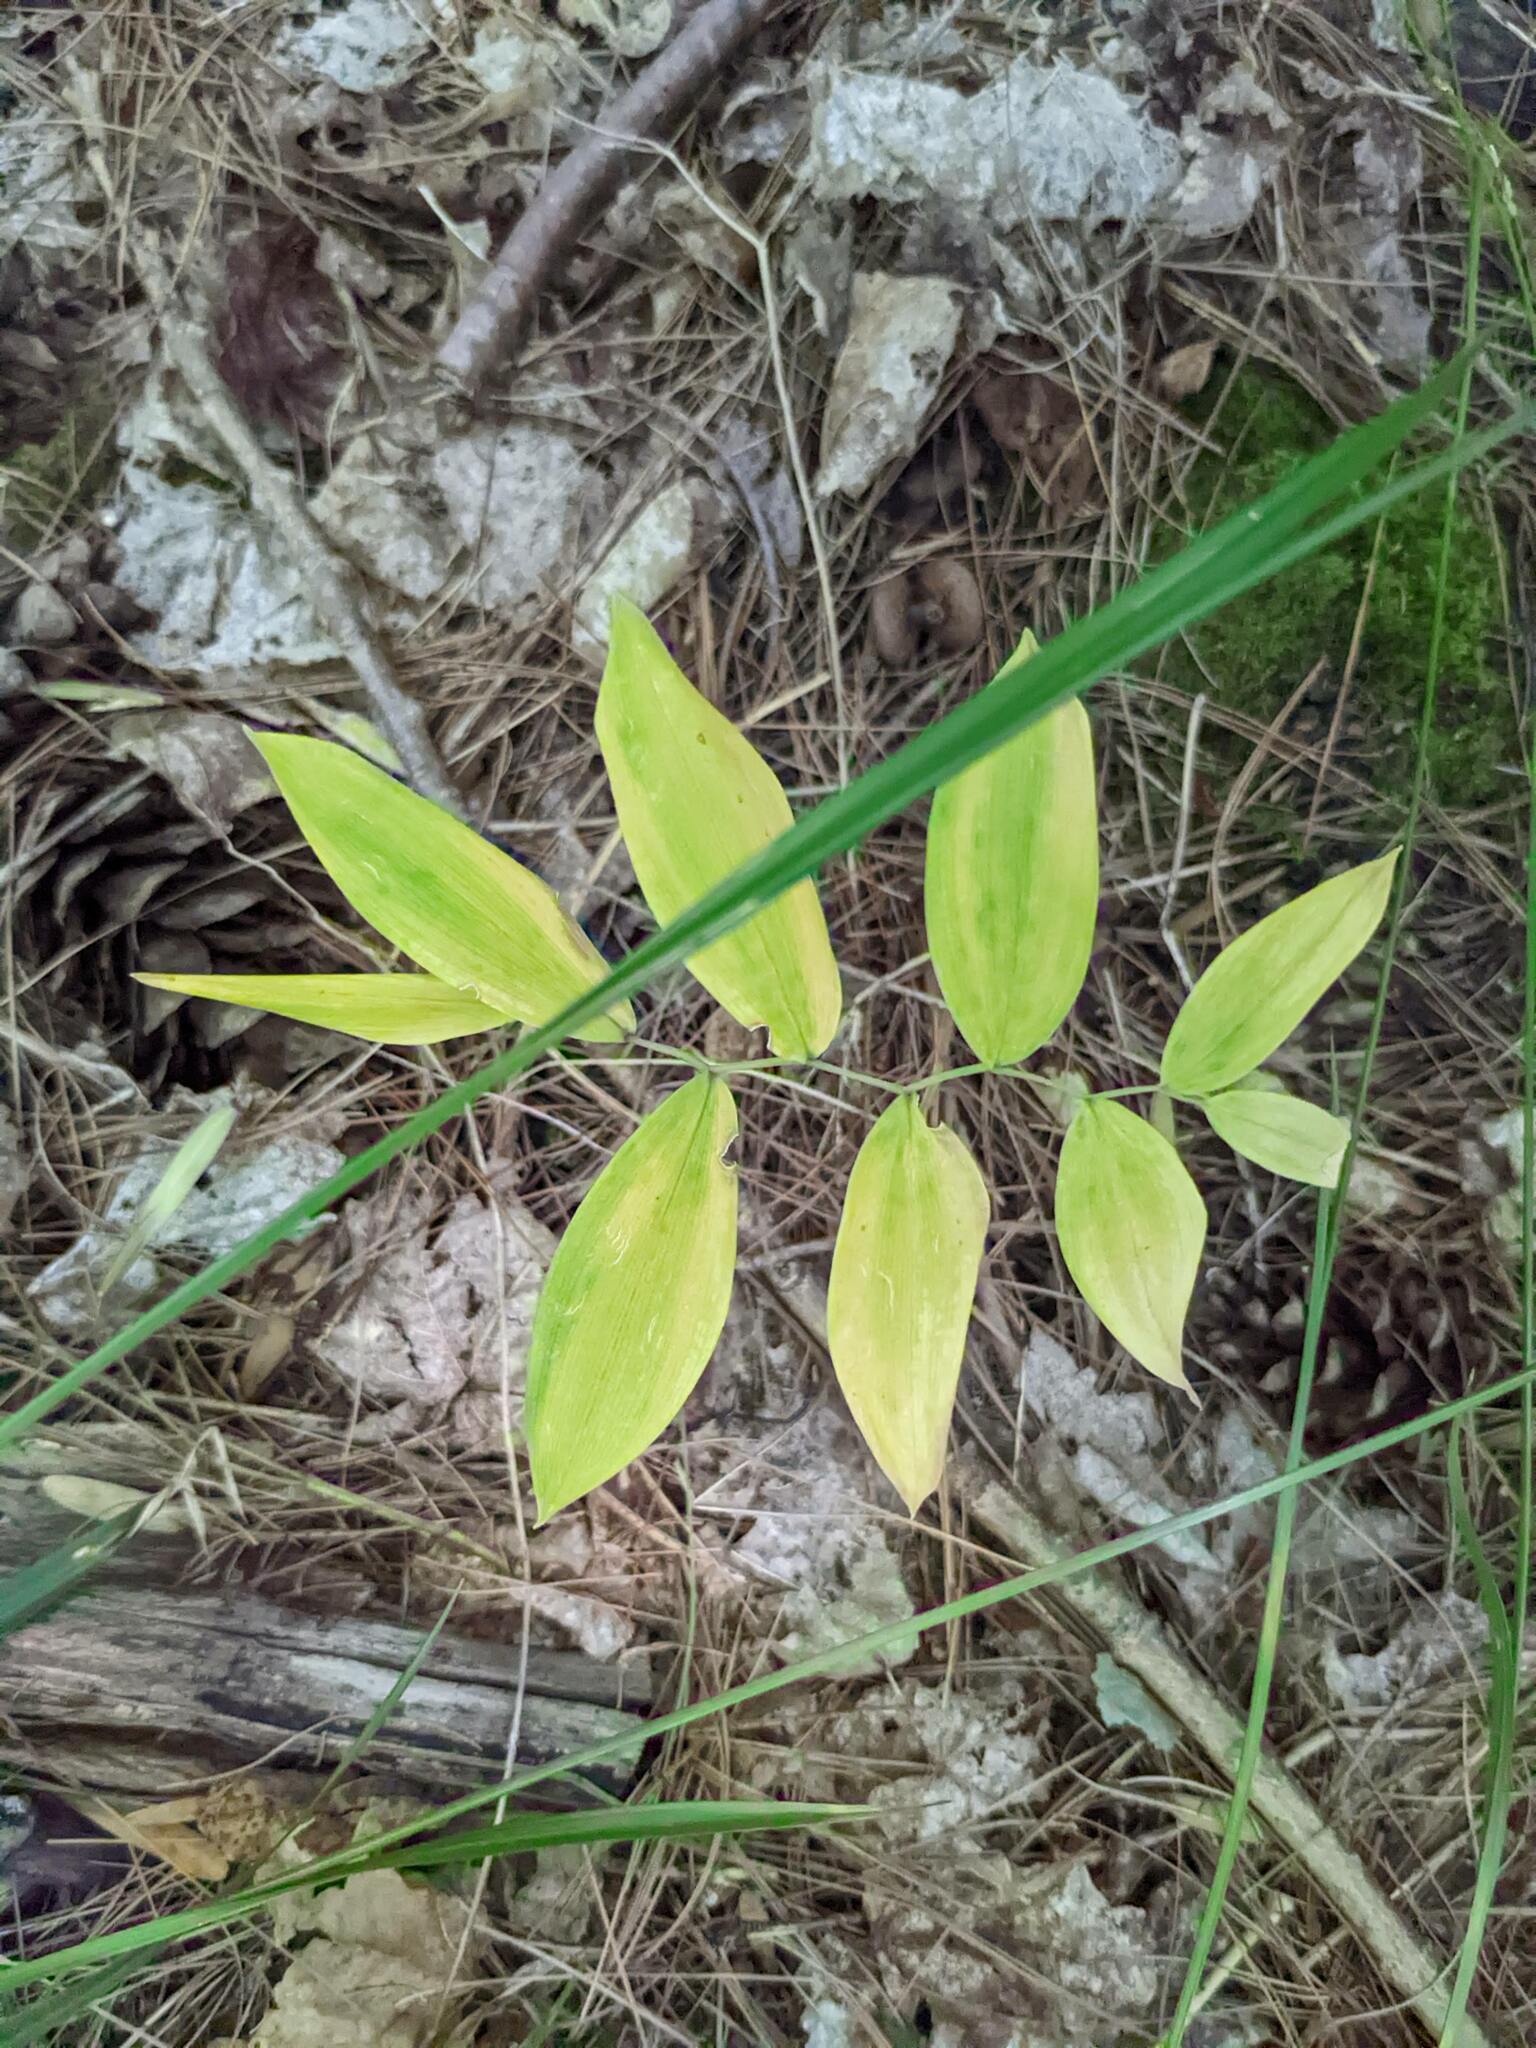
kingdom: Plantae
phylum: Tracheophyta
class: Liliopsida
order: Liliales
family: Colchicaceae
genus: Uvularia
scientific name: Uvularia sessilifolia
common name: Straw-lily
